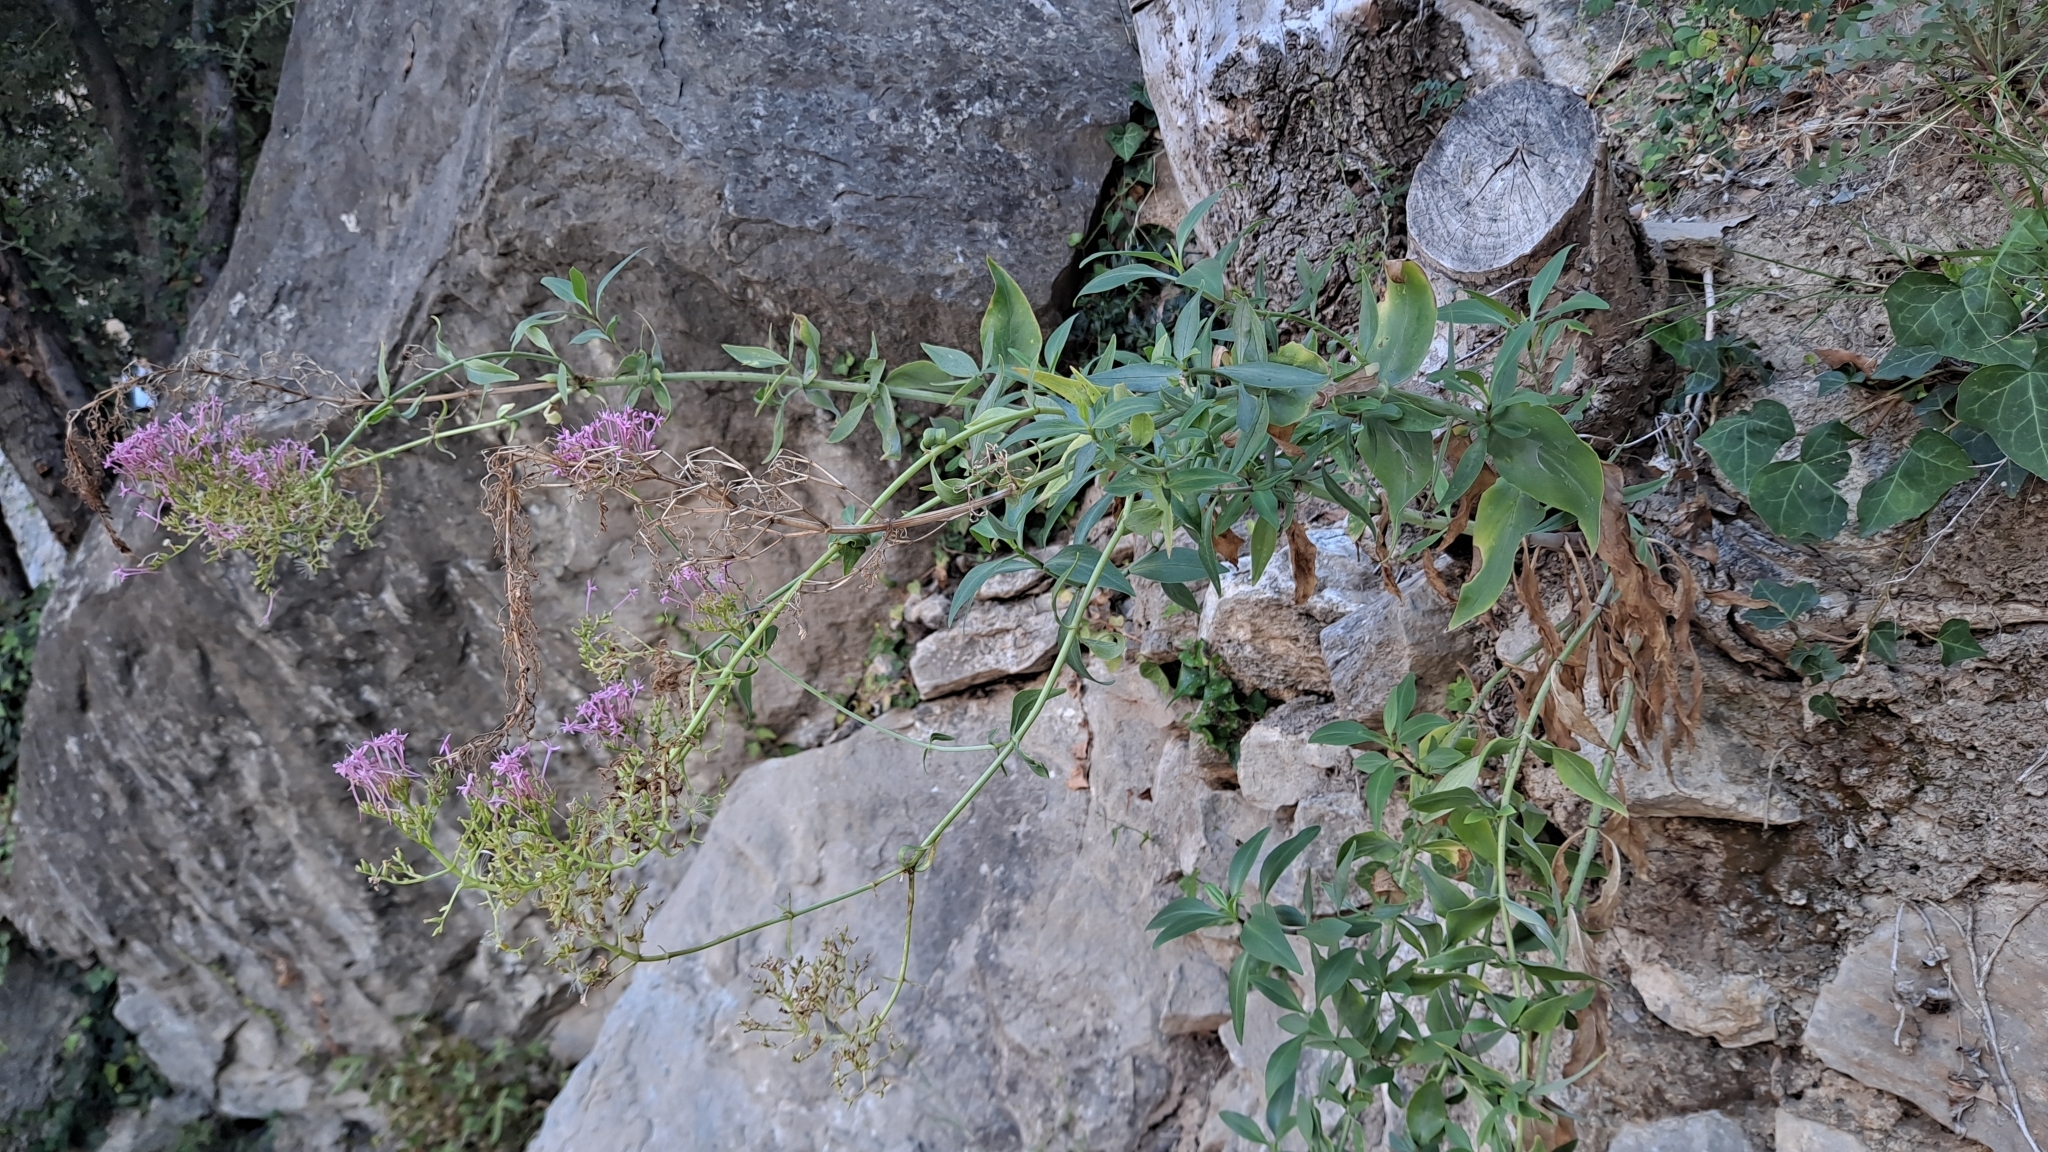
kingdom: Plantae
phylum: Tracheophyta
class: Magnoliopsida
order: Dipsacales
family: Caprifoliaceae
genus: Centranthus
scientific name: Centranthus lecoqii
